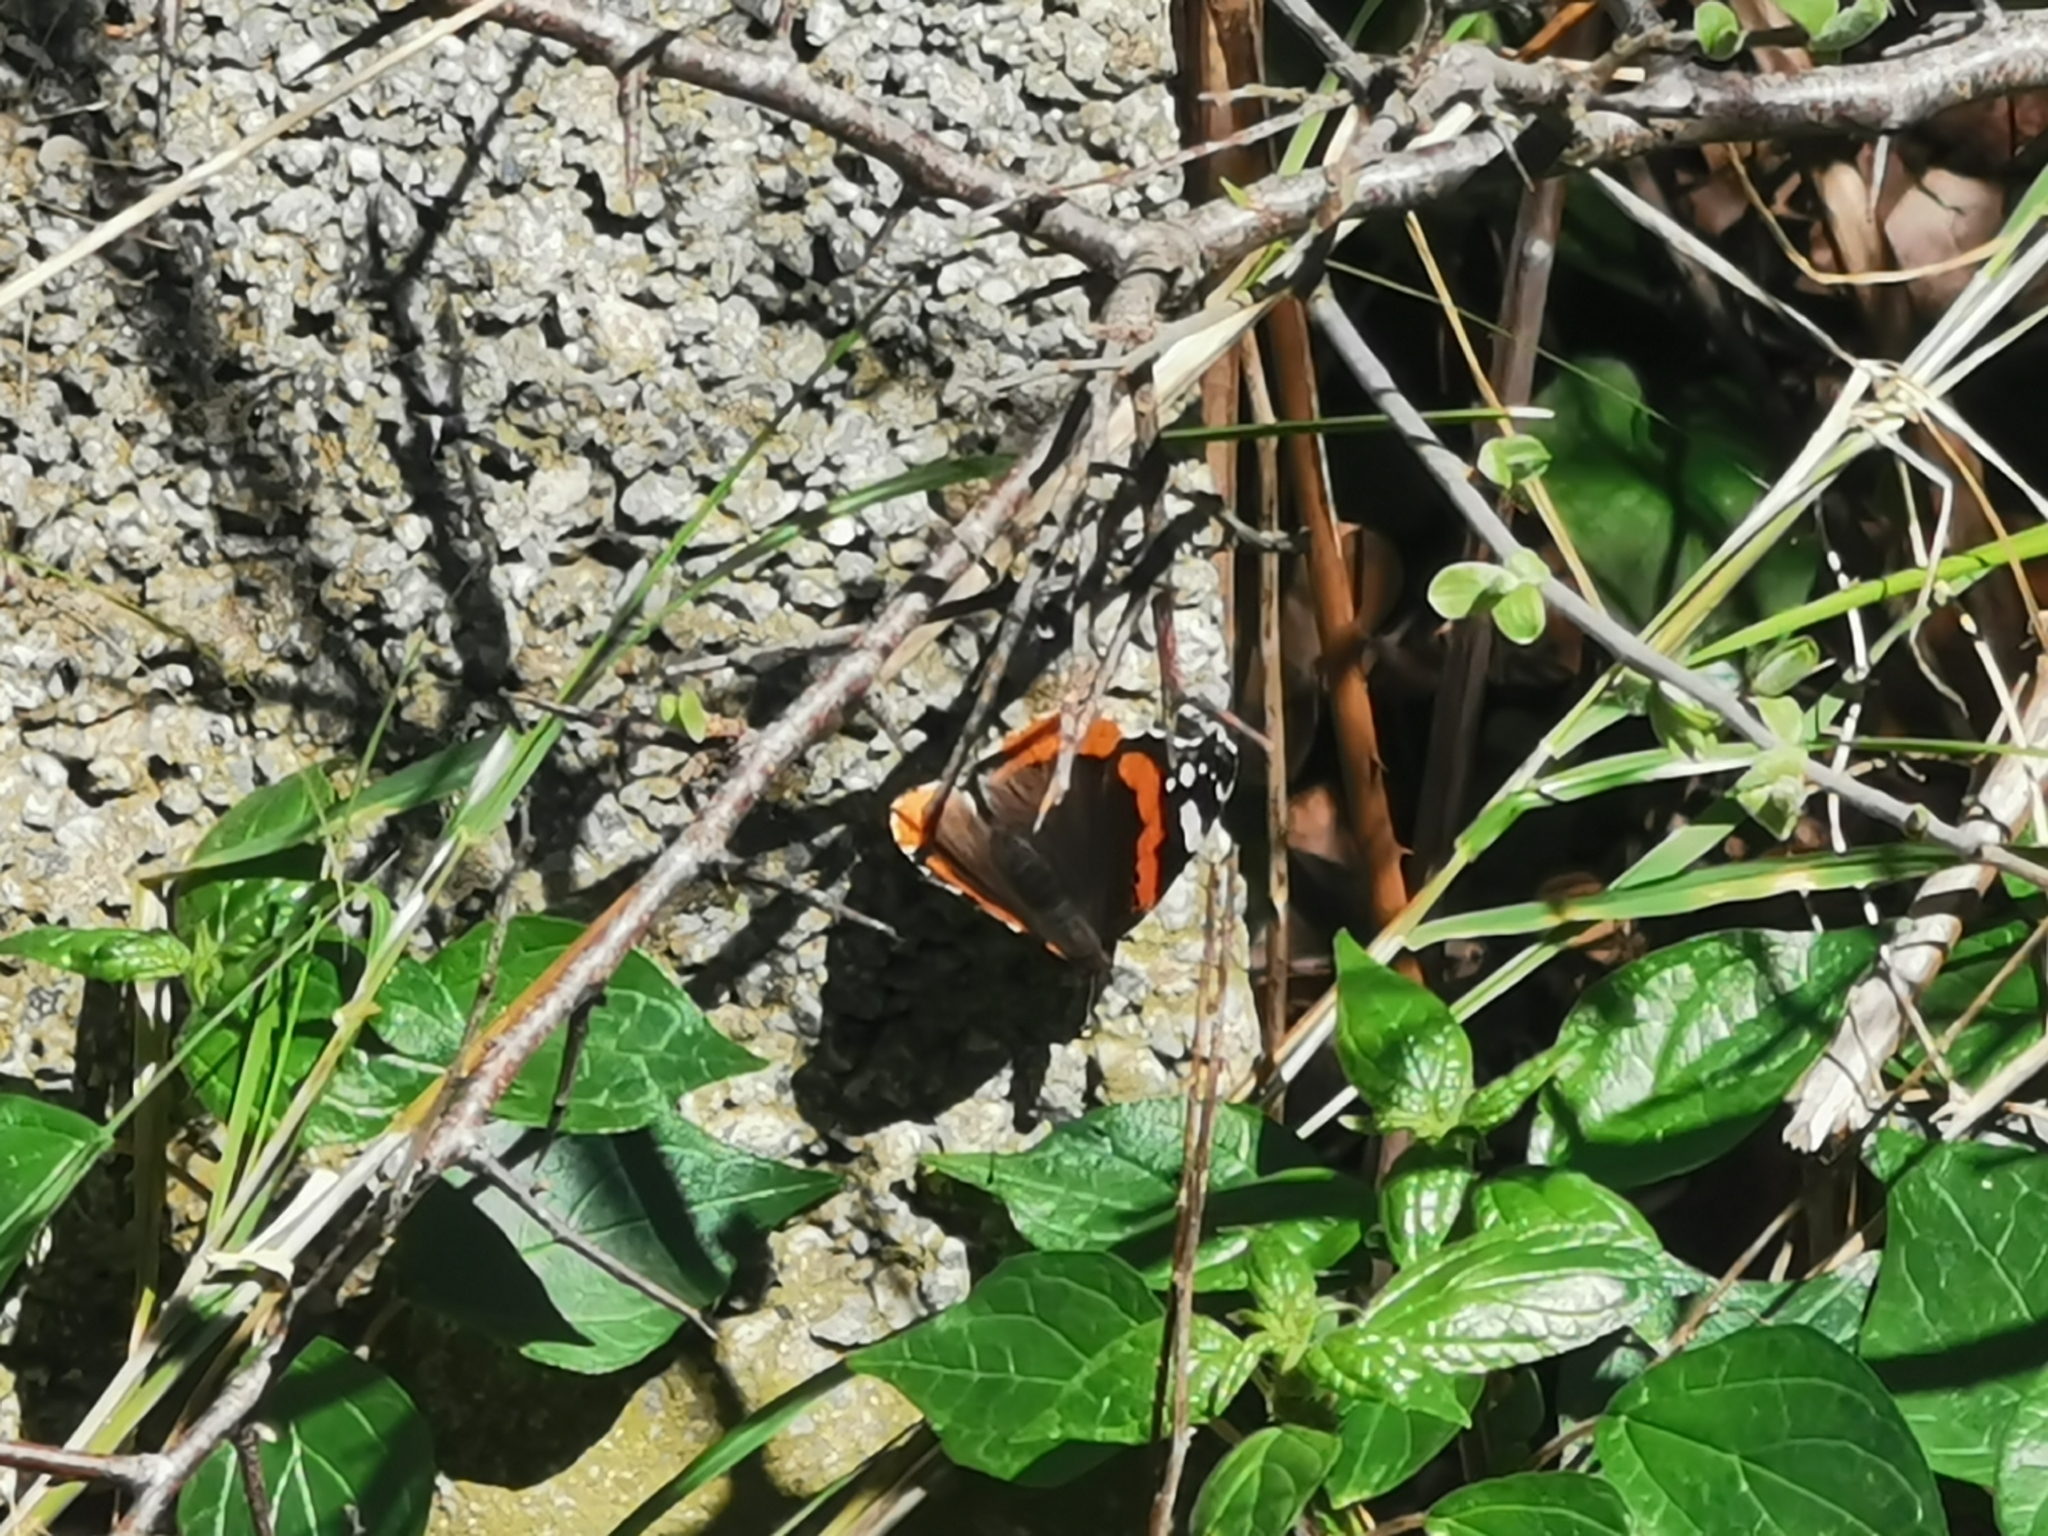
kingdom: Animalia
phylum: Arthropoda
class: Insecta
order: Lepidoptera
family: Nymphalidae
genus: Vanessa
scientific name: Vanessa atalanta
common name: Red admiral
